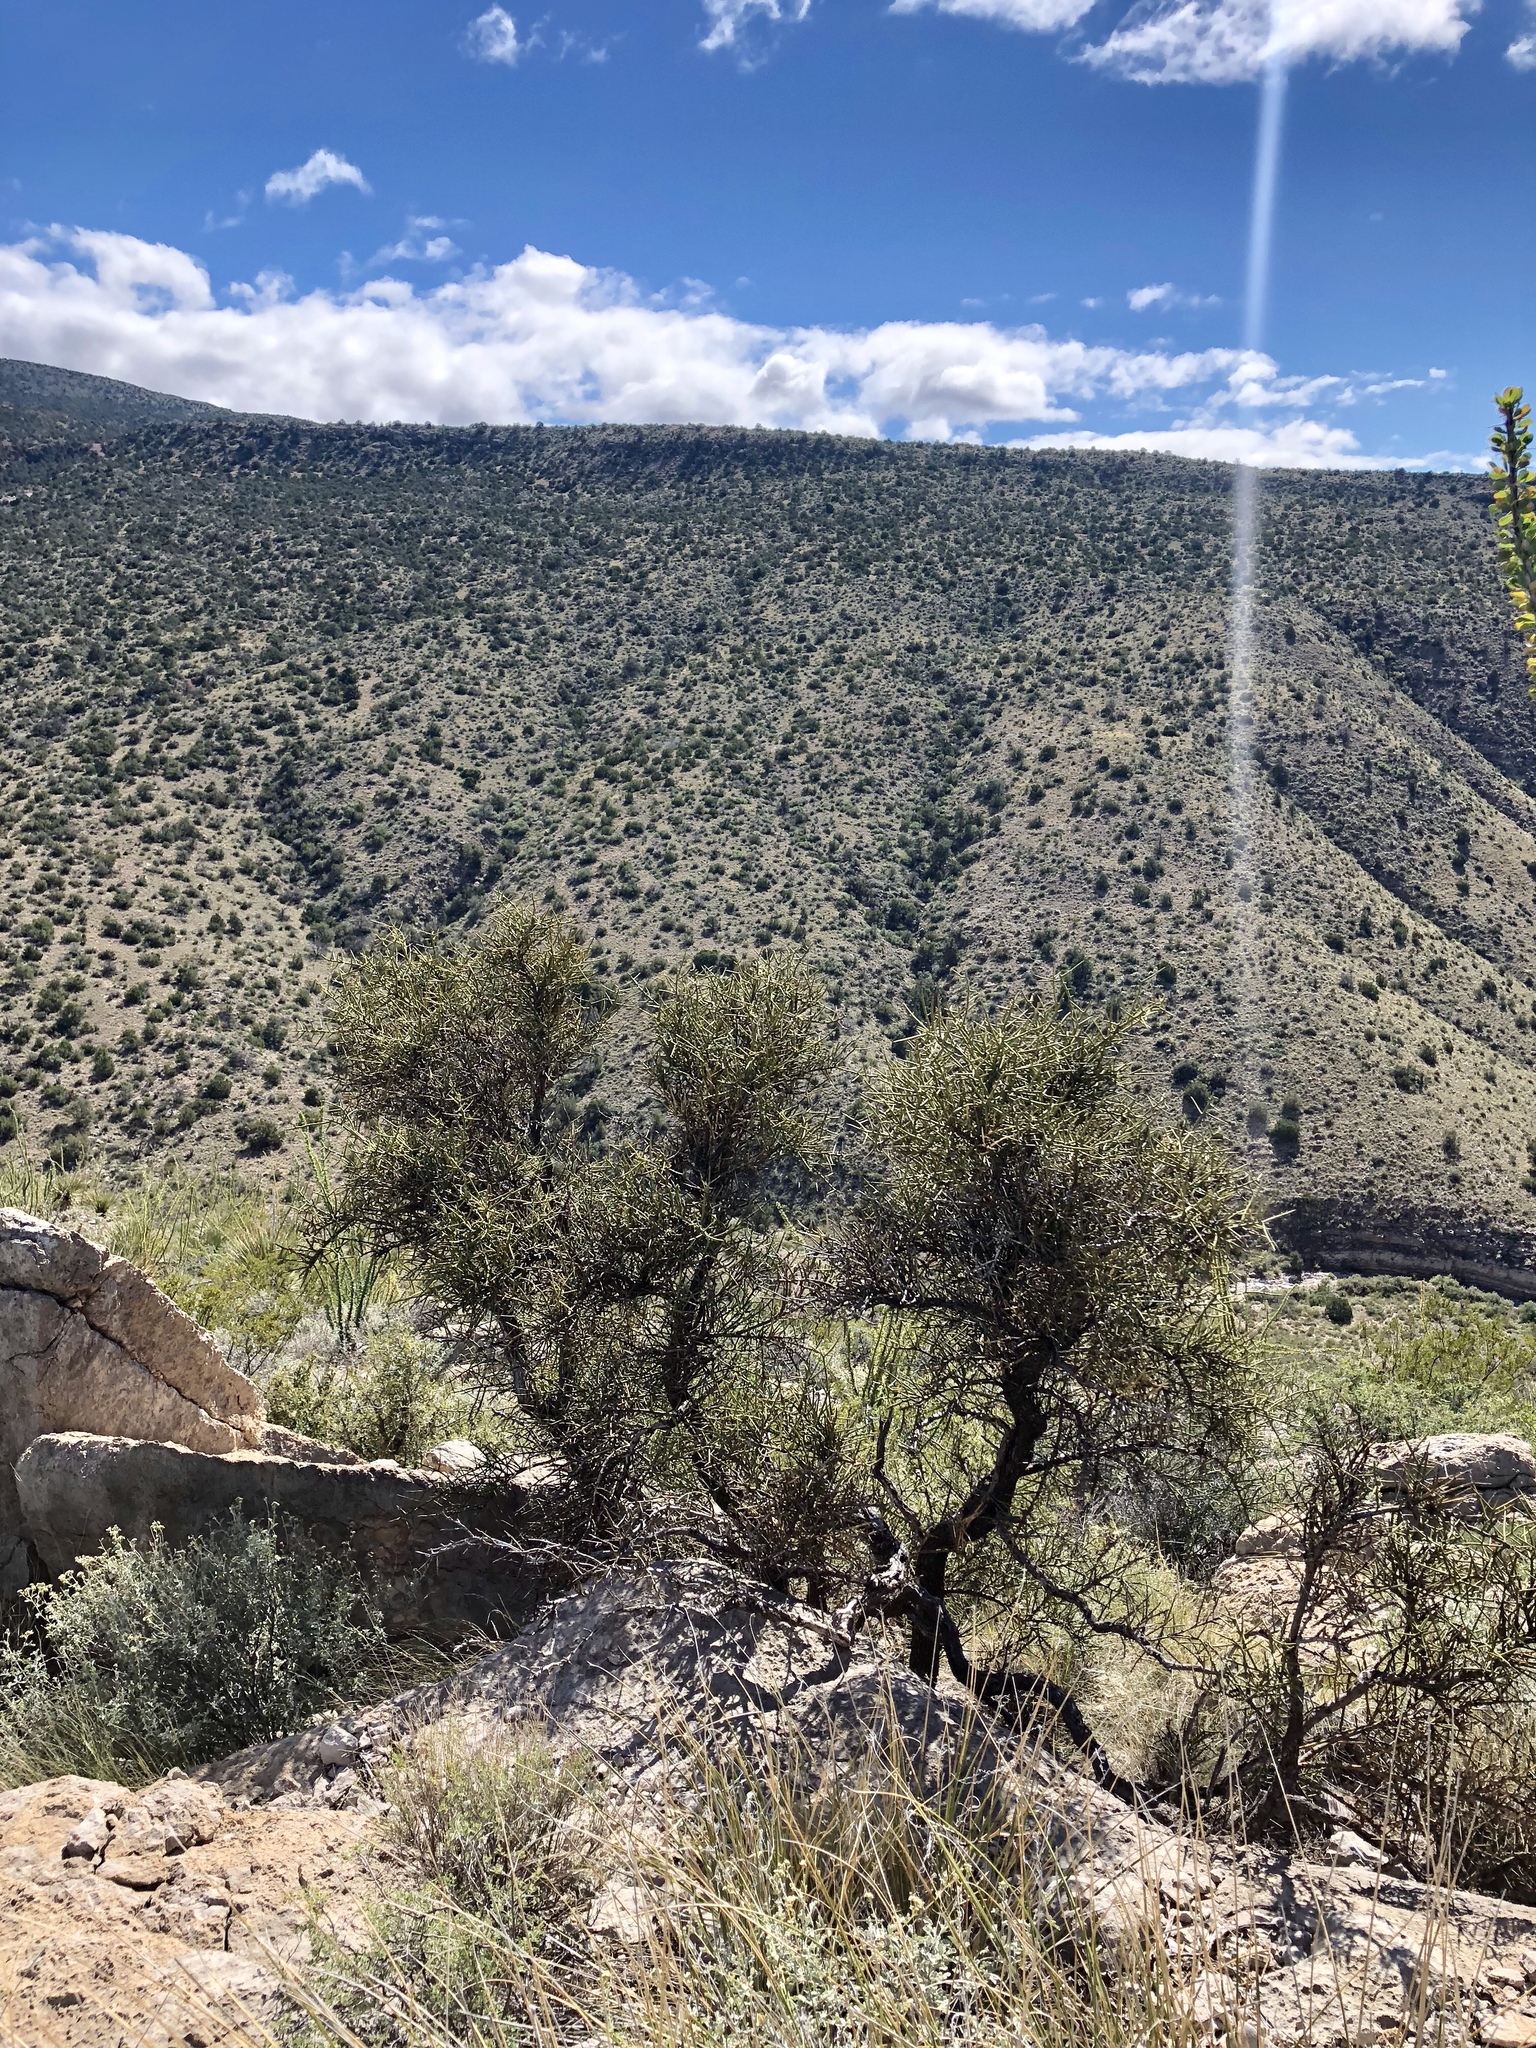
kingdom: Plantae
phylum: Tracheophyta
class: Magnoliopsida
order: Brassicales
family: Koeberliniaceae
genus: Koeberlinia
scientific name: Koeberlinia spinosa
